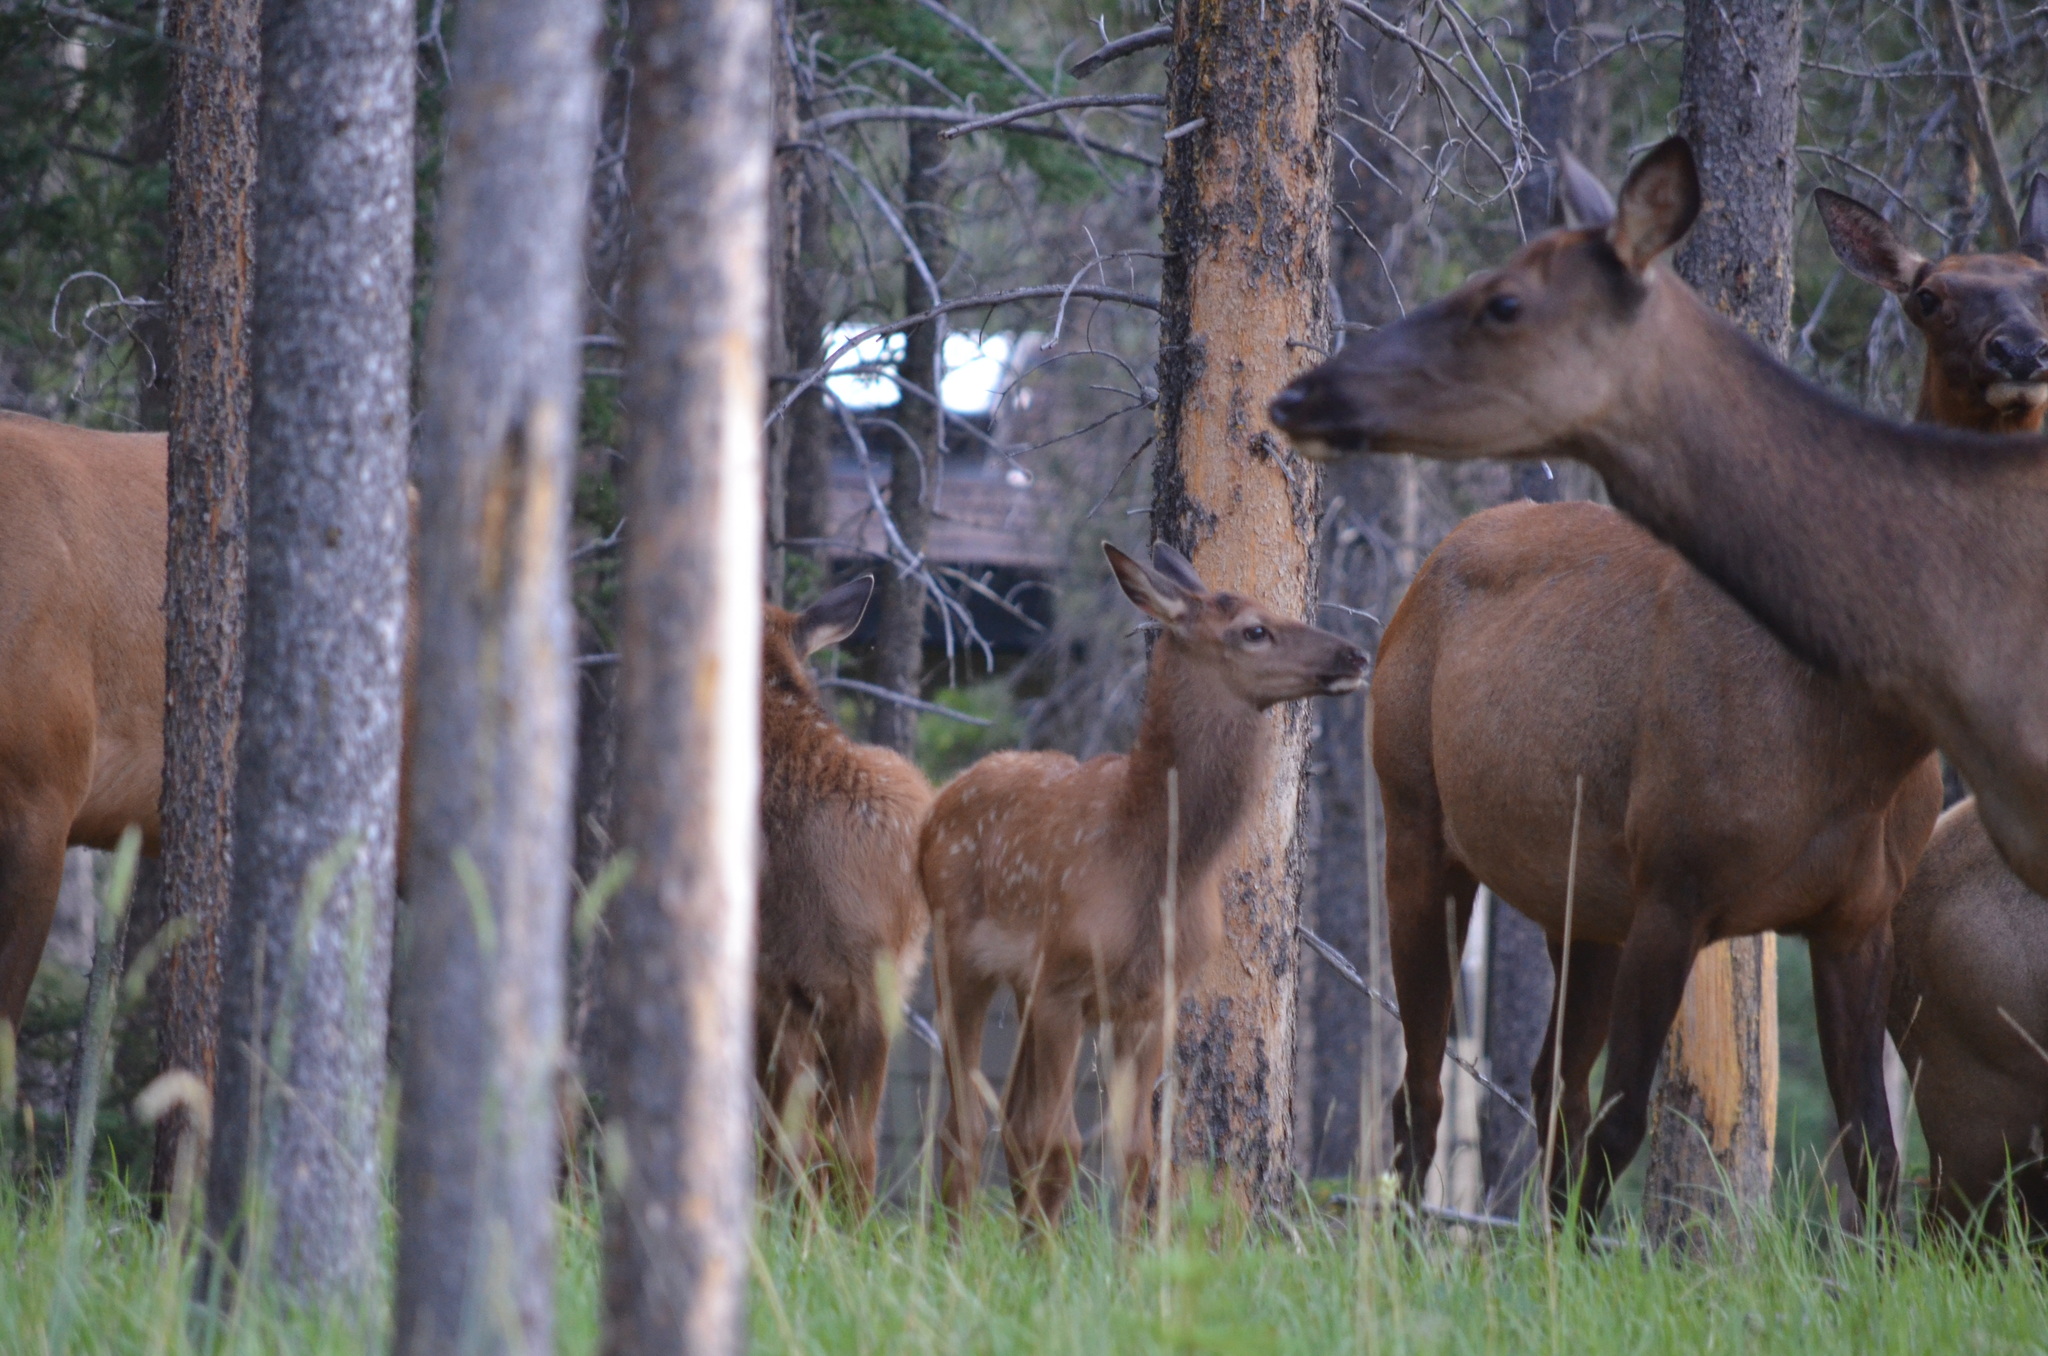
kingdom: Animalia
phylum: Chordata
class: Mammalia
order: Artiodactyla
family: Cervidae
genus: Cervus
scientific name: Cervus elaphus
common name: Red deer
